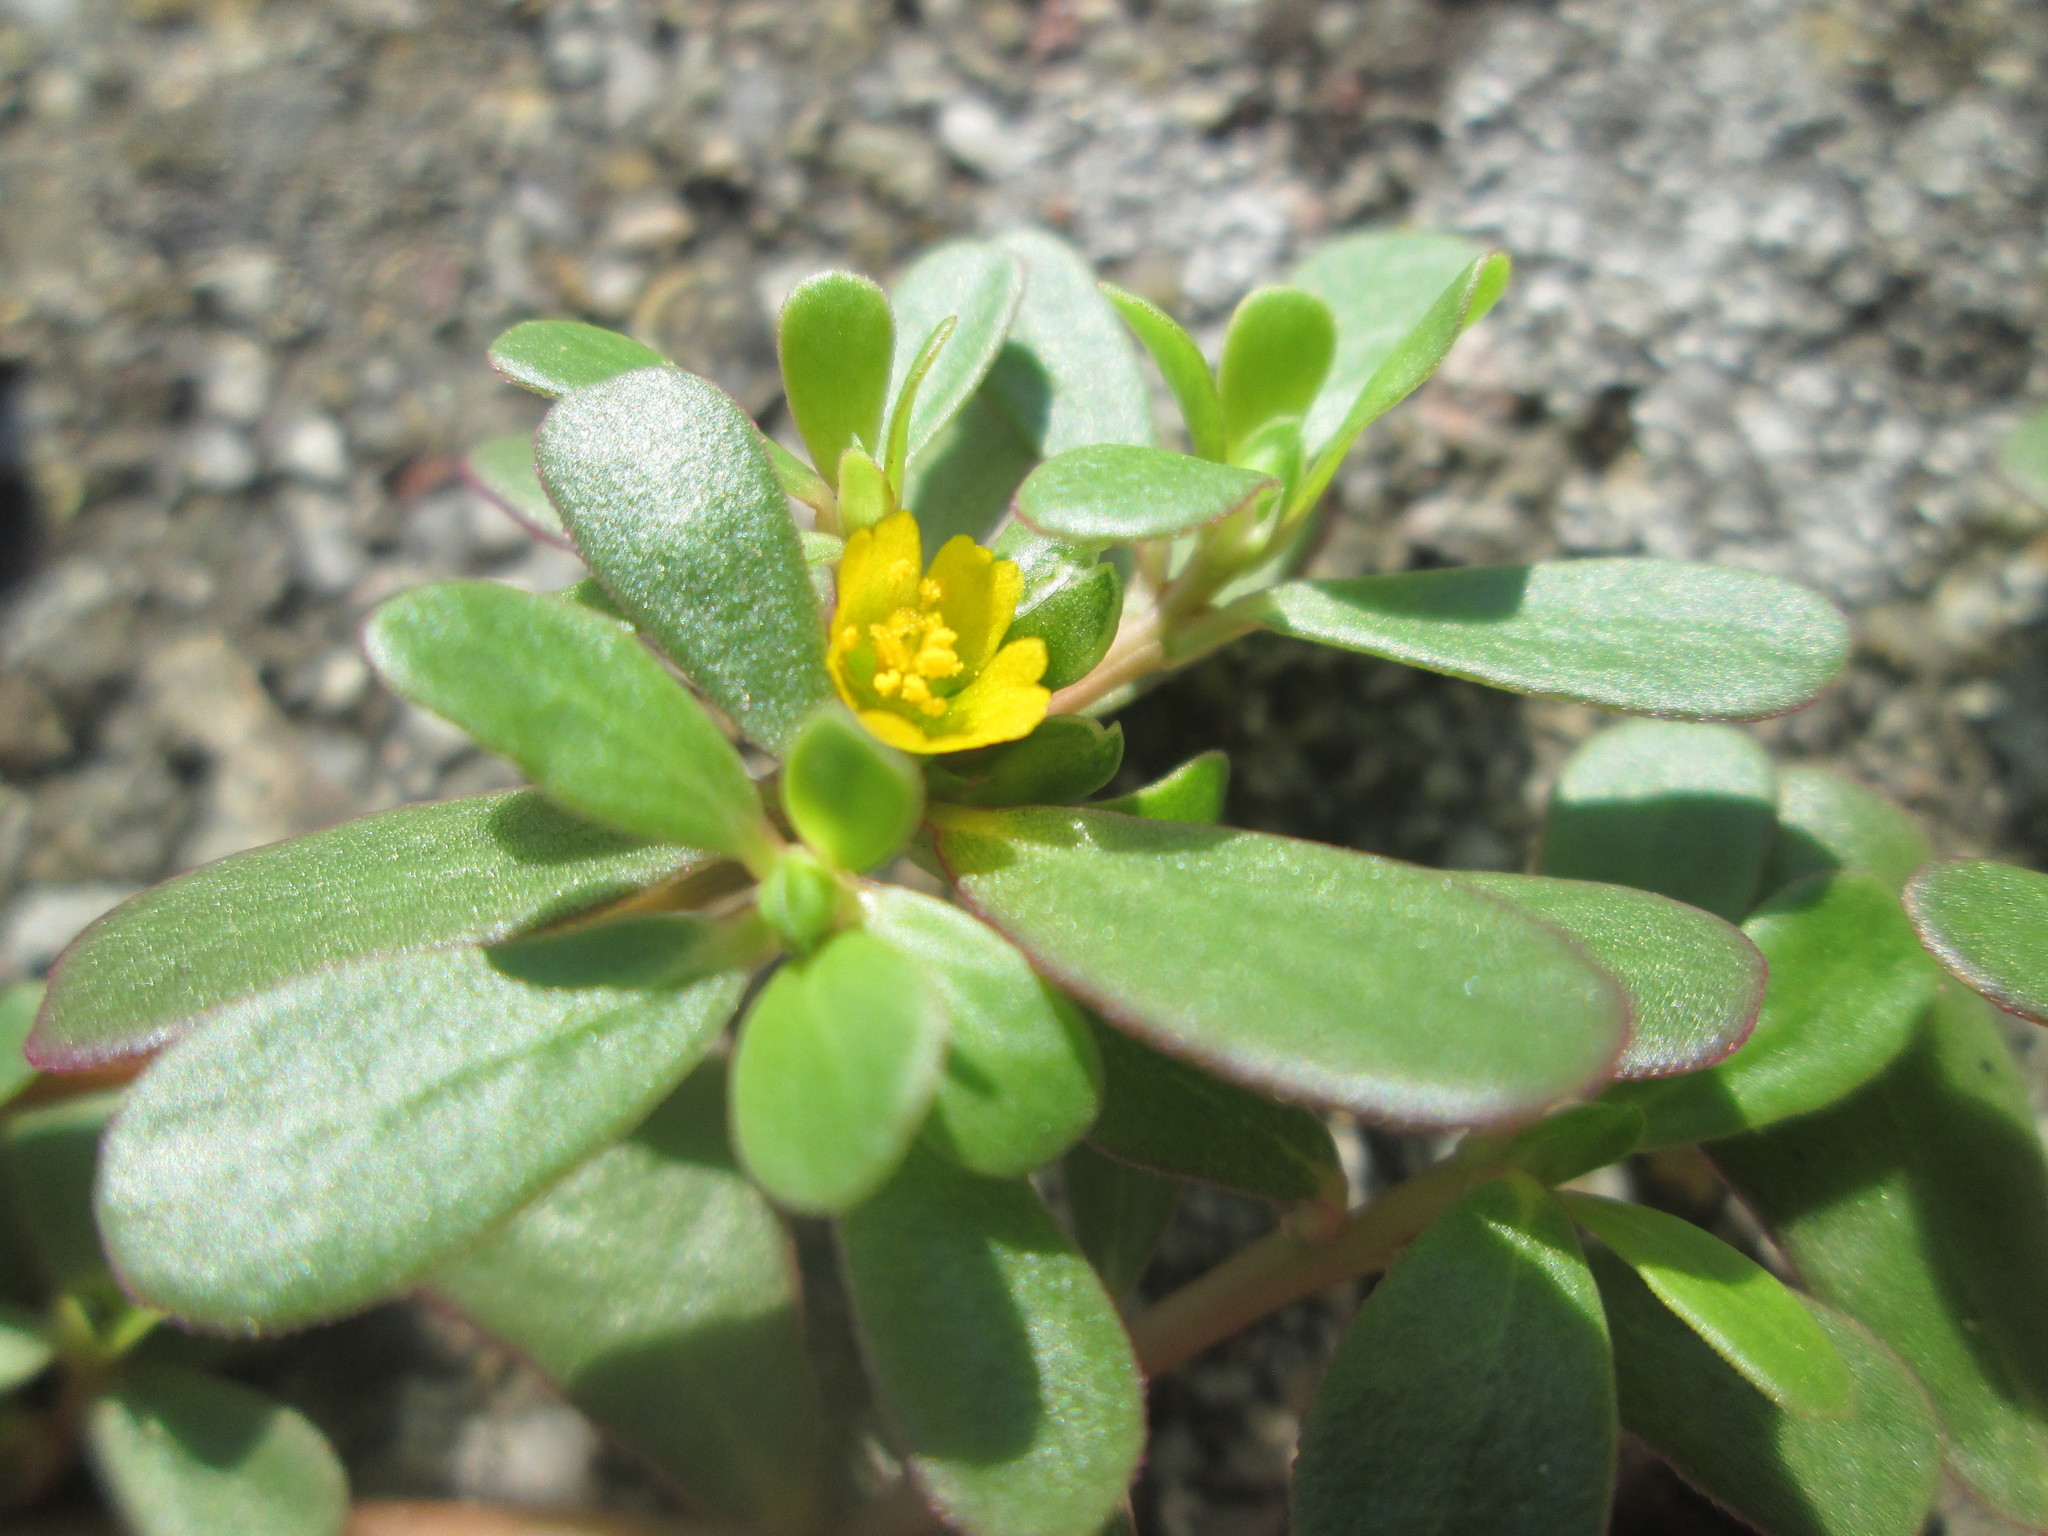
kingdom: Plantae
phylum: Tracheophyta
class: Magnoliopsida
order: Caryophyllales
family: Portulacaceae
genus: Portulaca
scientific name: Portulaca oleracea
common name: Common purslane
